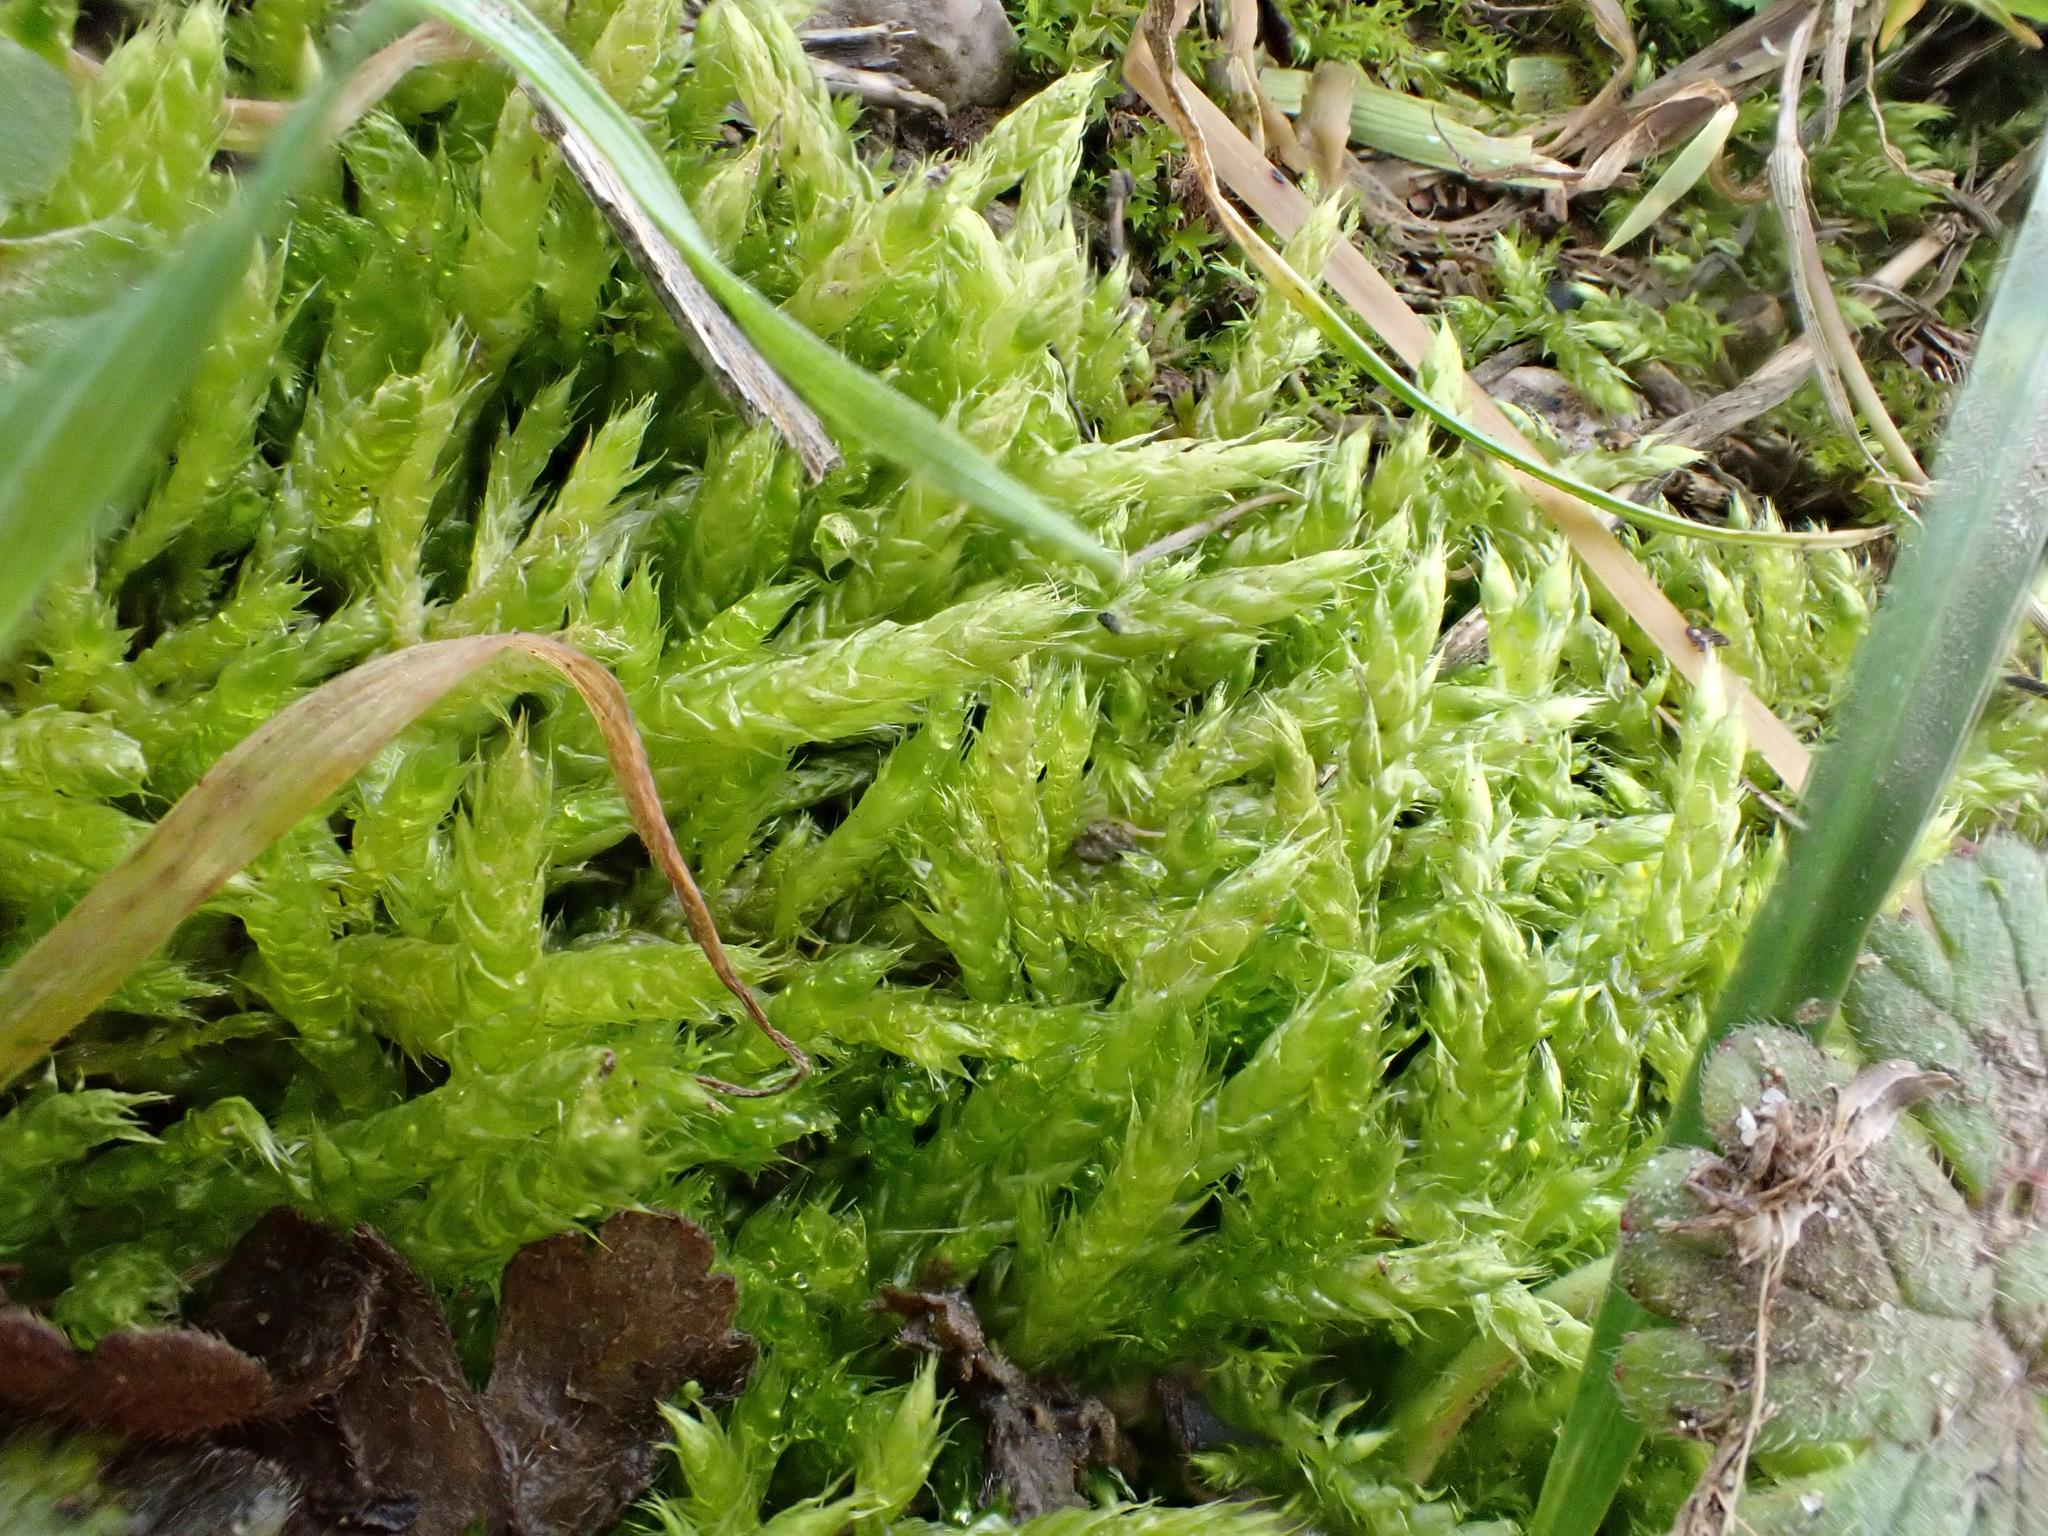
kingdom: Plantae
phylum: Bryophyta
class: Bryopsida
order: Hypnales
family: Brachytheciaceae
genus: Brachythecium
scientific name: Brachythecium rutabulum
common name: Rough-stalked feather-moss
